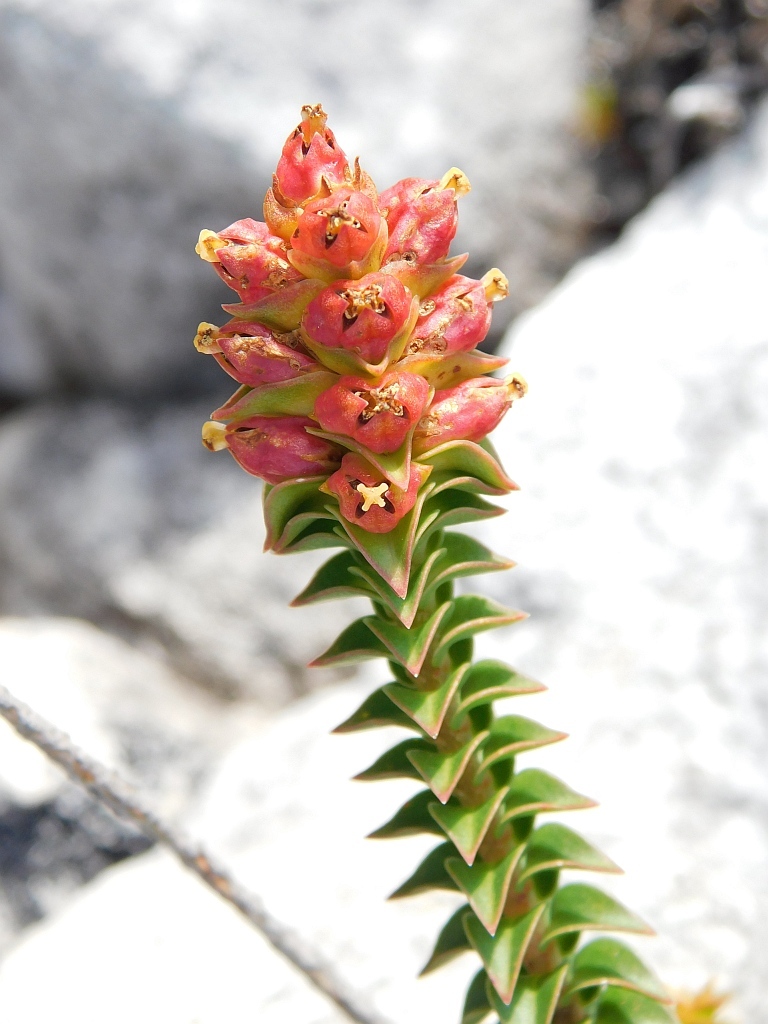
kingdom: Plantae
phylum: Tracheophyta
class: Magnoliopsida
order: Myrtales
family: Penaeaceae
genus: Penaea
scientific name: Penaea mucronata
